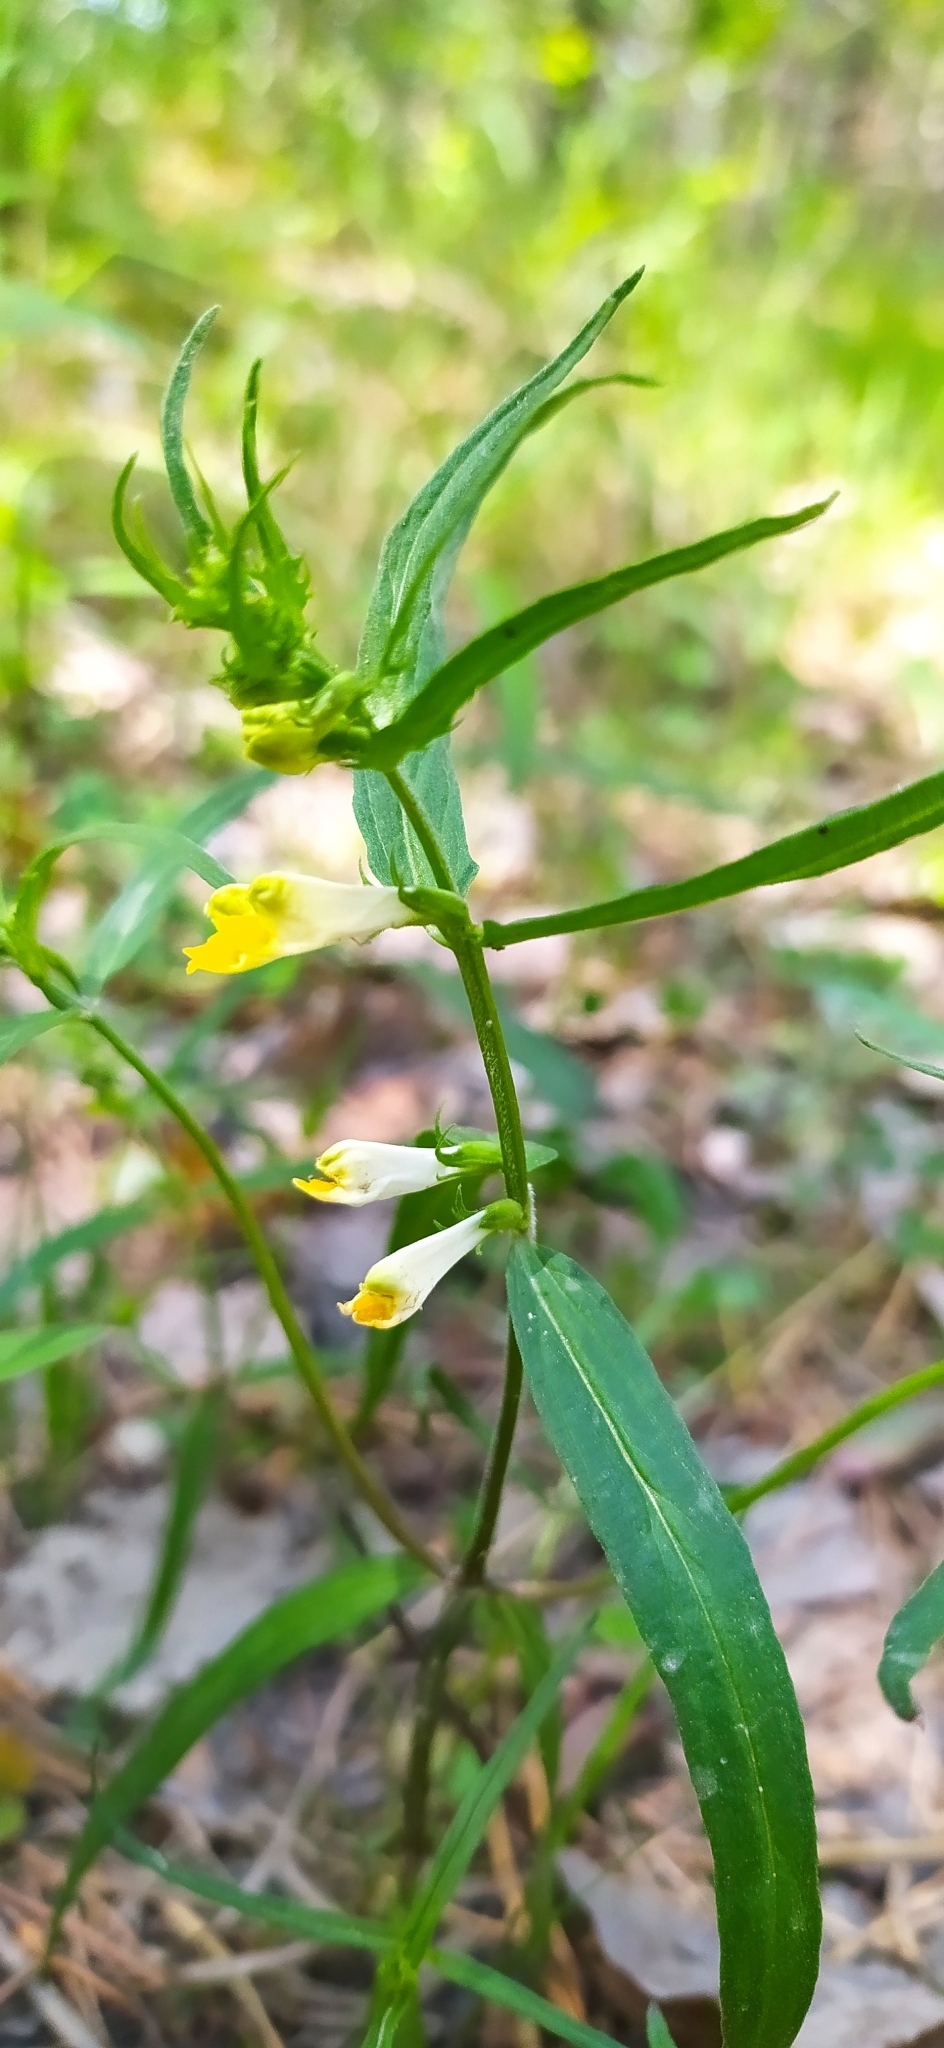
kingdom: Plantae
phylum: Tracheophyta
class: Magnoliopsida
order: Lamiales
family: Orobanchaceae
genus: Melampyrum
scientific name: Melampyrum pratense
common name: Common cow-wheat
